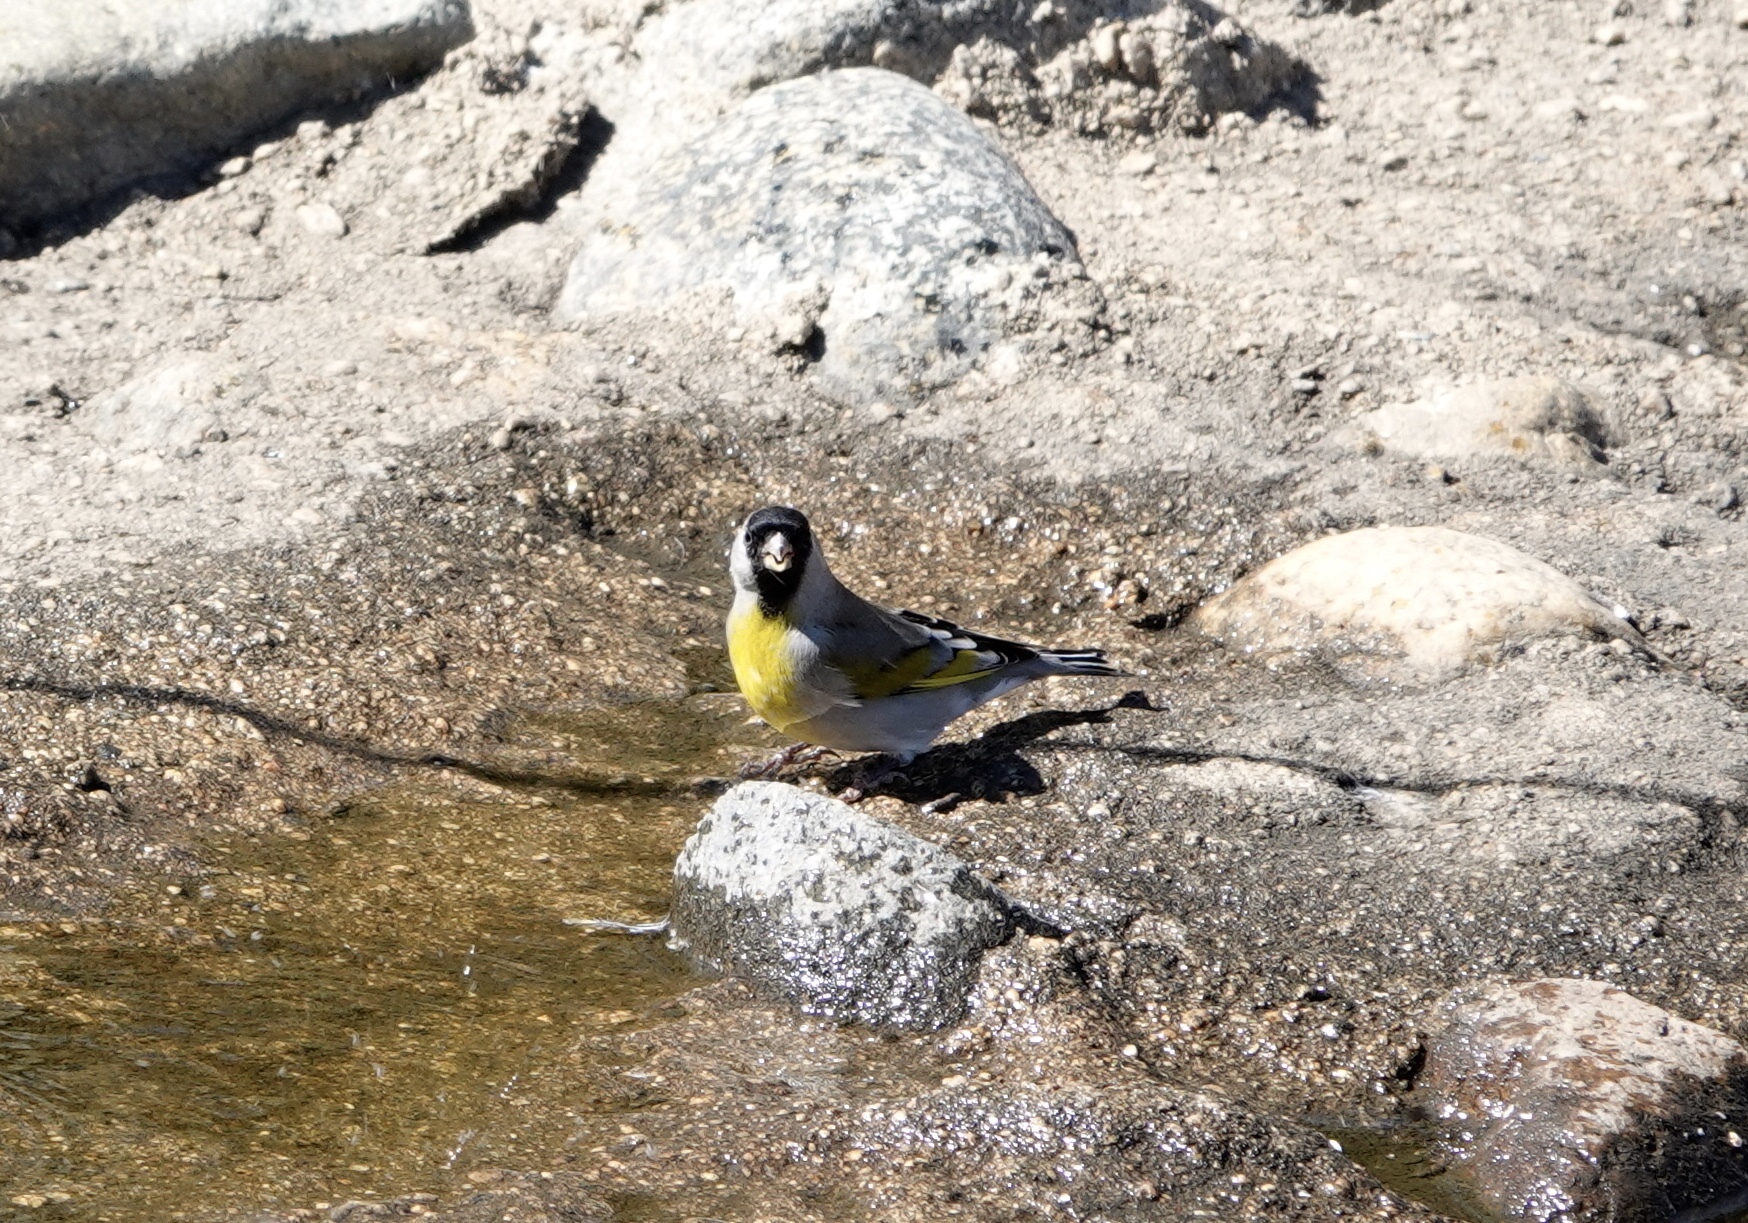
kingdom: Animalia
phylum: Chordata
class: Aves
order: Passeriformes
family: Fringillidae
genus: Spinus
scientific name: Spinus lawrencei
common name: Lawrence's goldfinch
